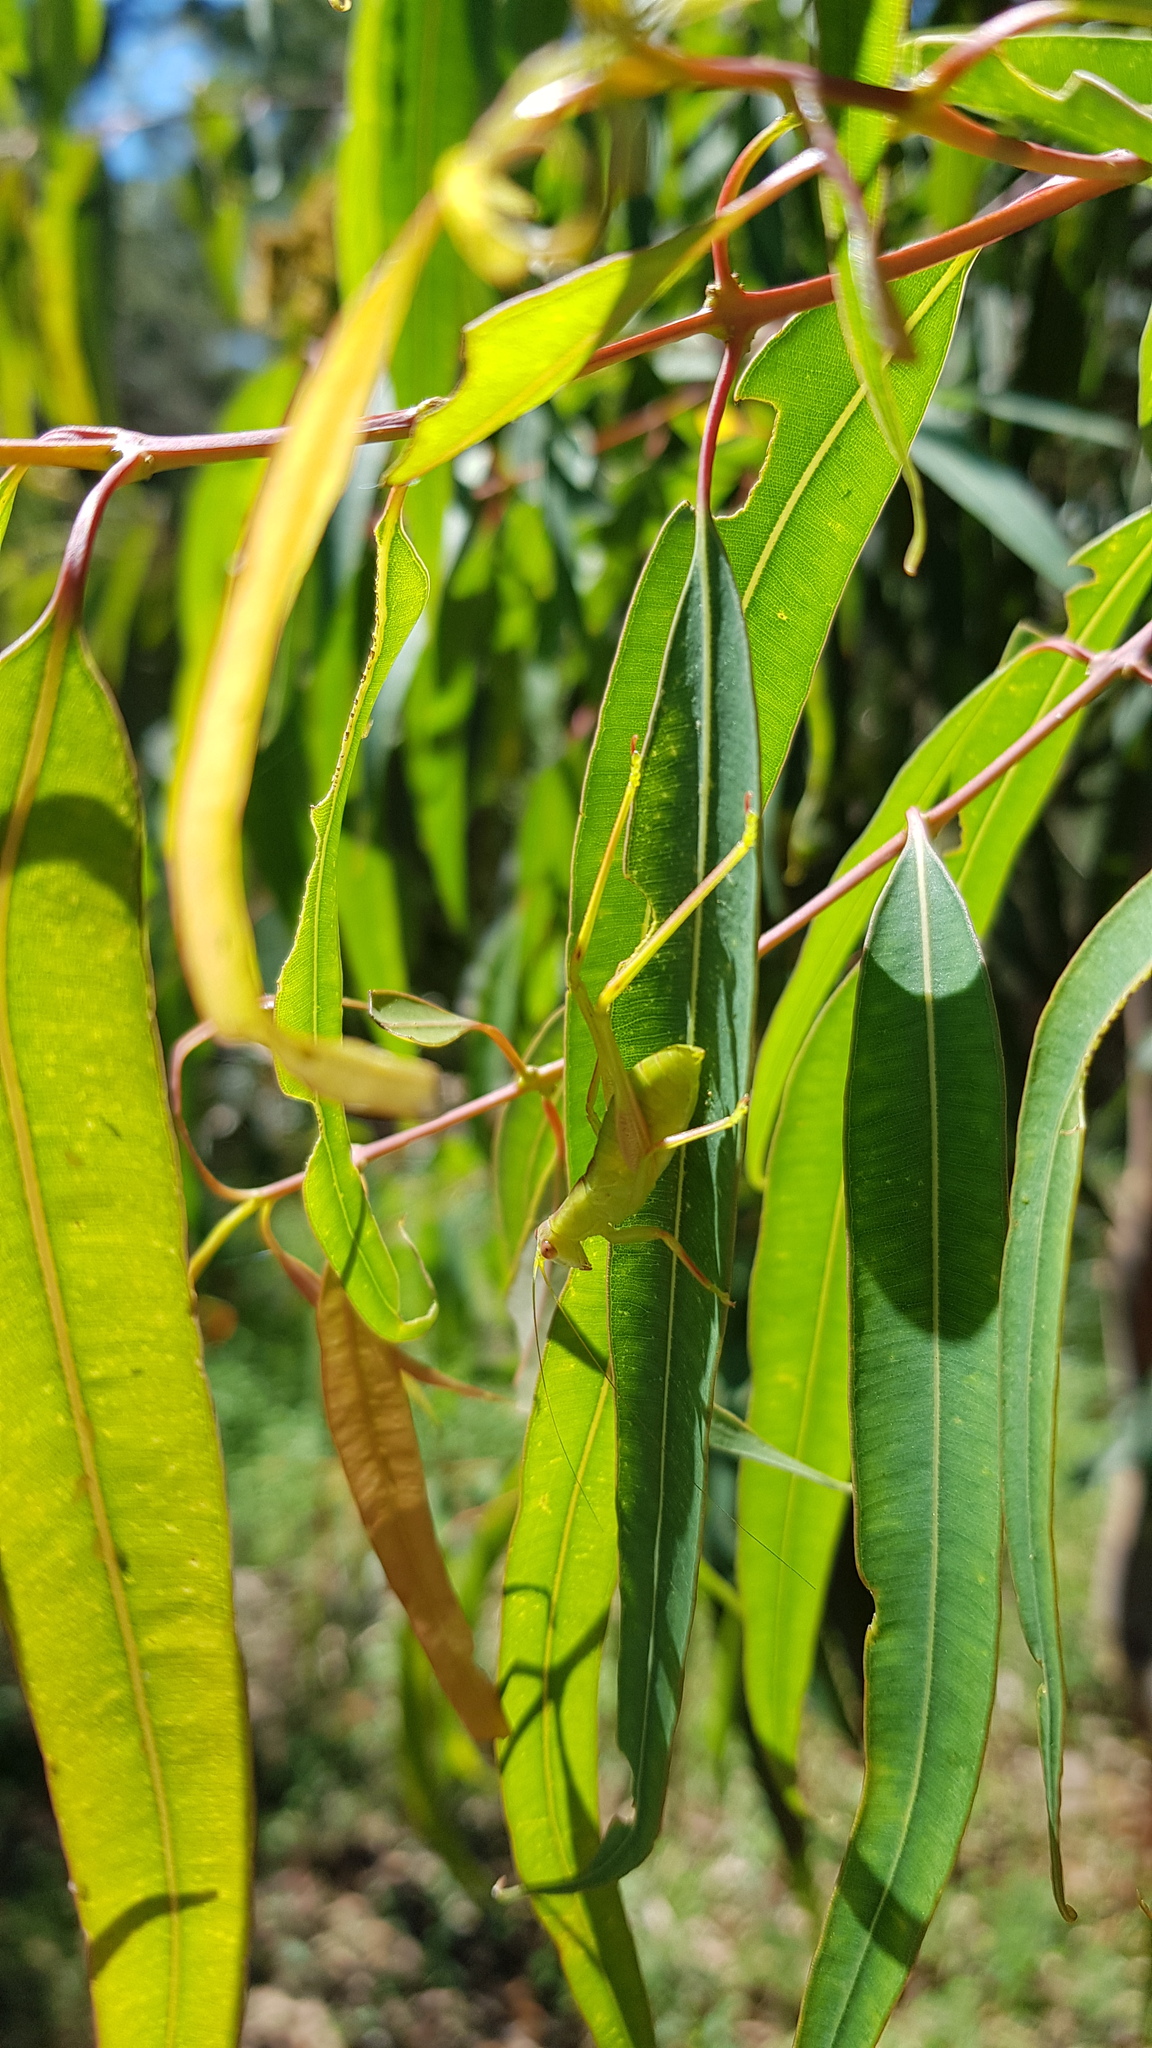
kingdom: Animalia
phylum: Arthropoda
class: Insecta
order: Orthoptera
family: Tettigoniidae
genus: Torbia
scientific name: Torbia perficita
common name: Giant torbia
